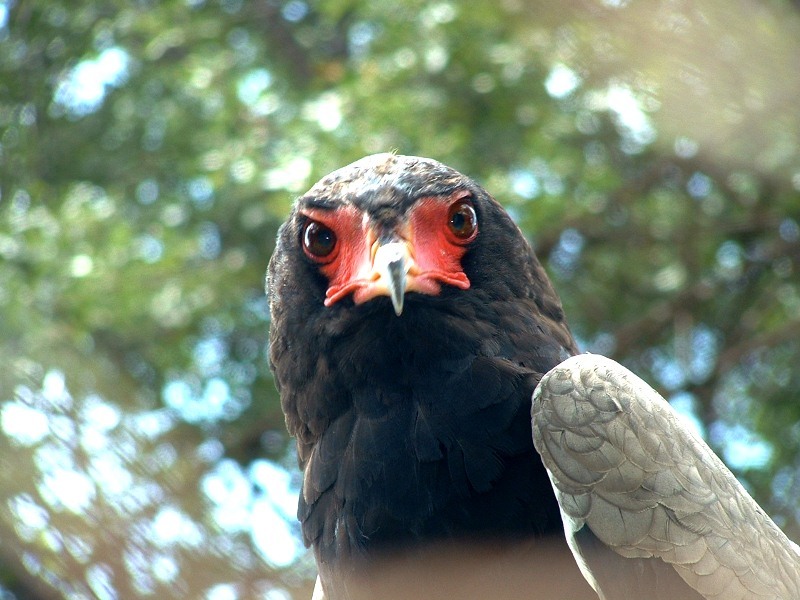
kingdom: Animalia
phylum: Chordata
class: Aves
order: Accipitriformes
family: Accipitridae
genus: Terathopius
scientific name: Terathopius ecaudatus
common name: Bateleur
